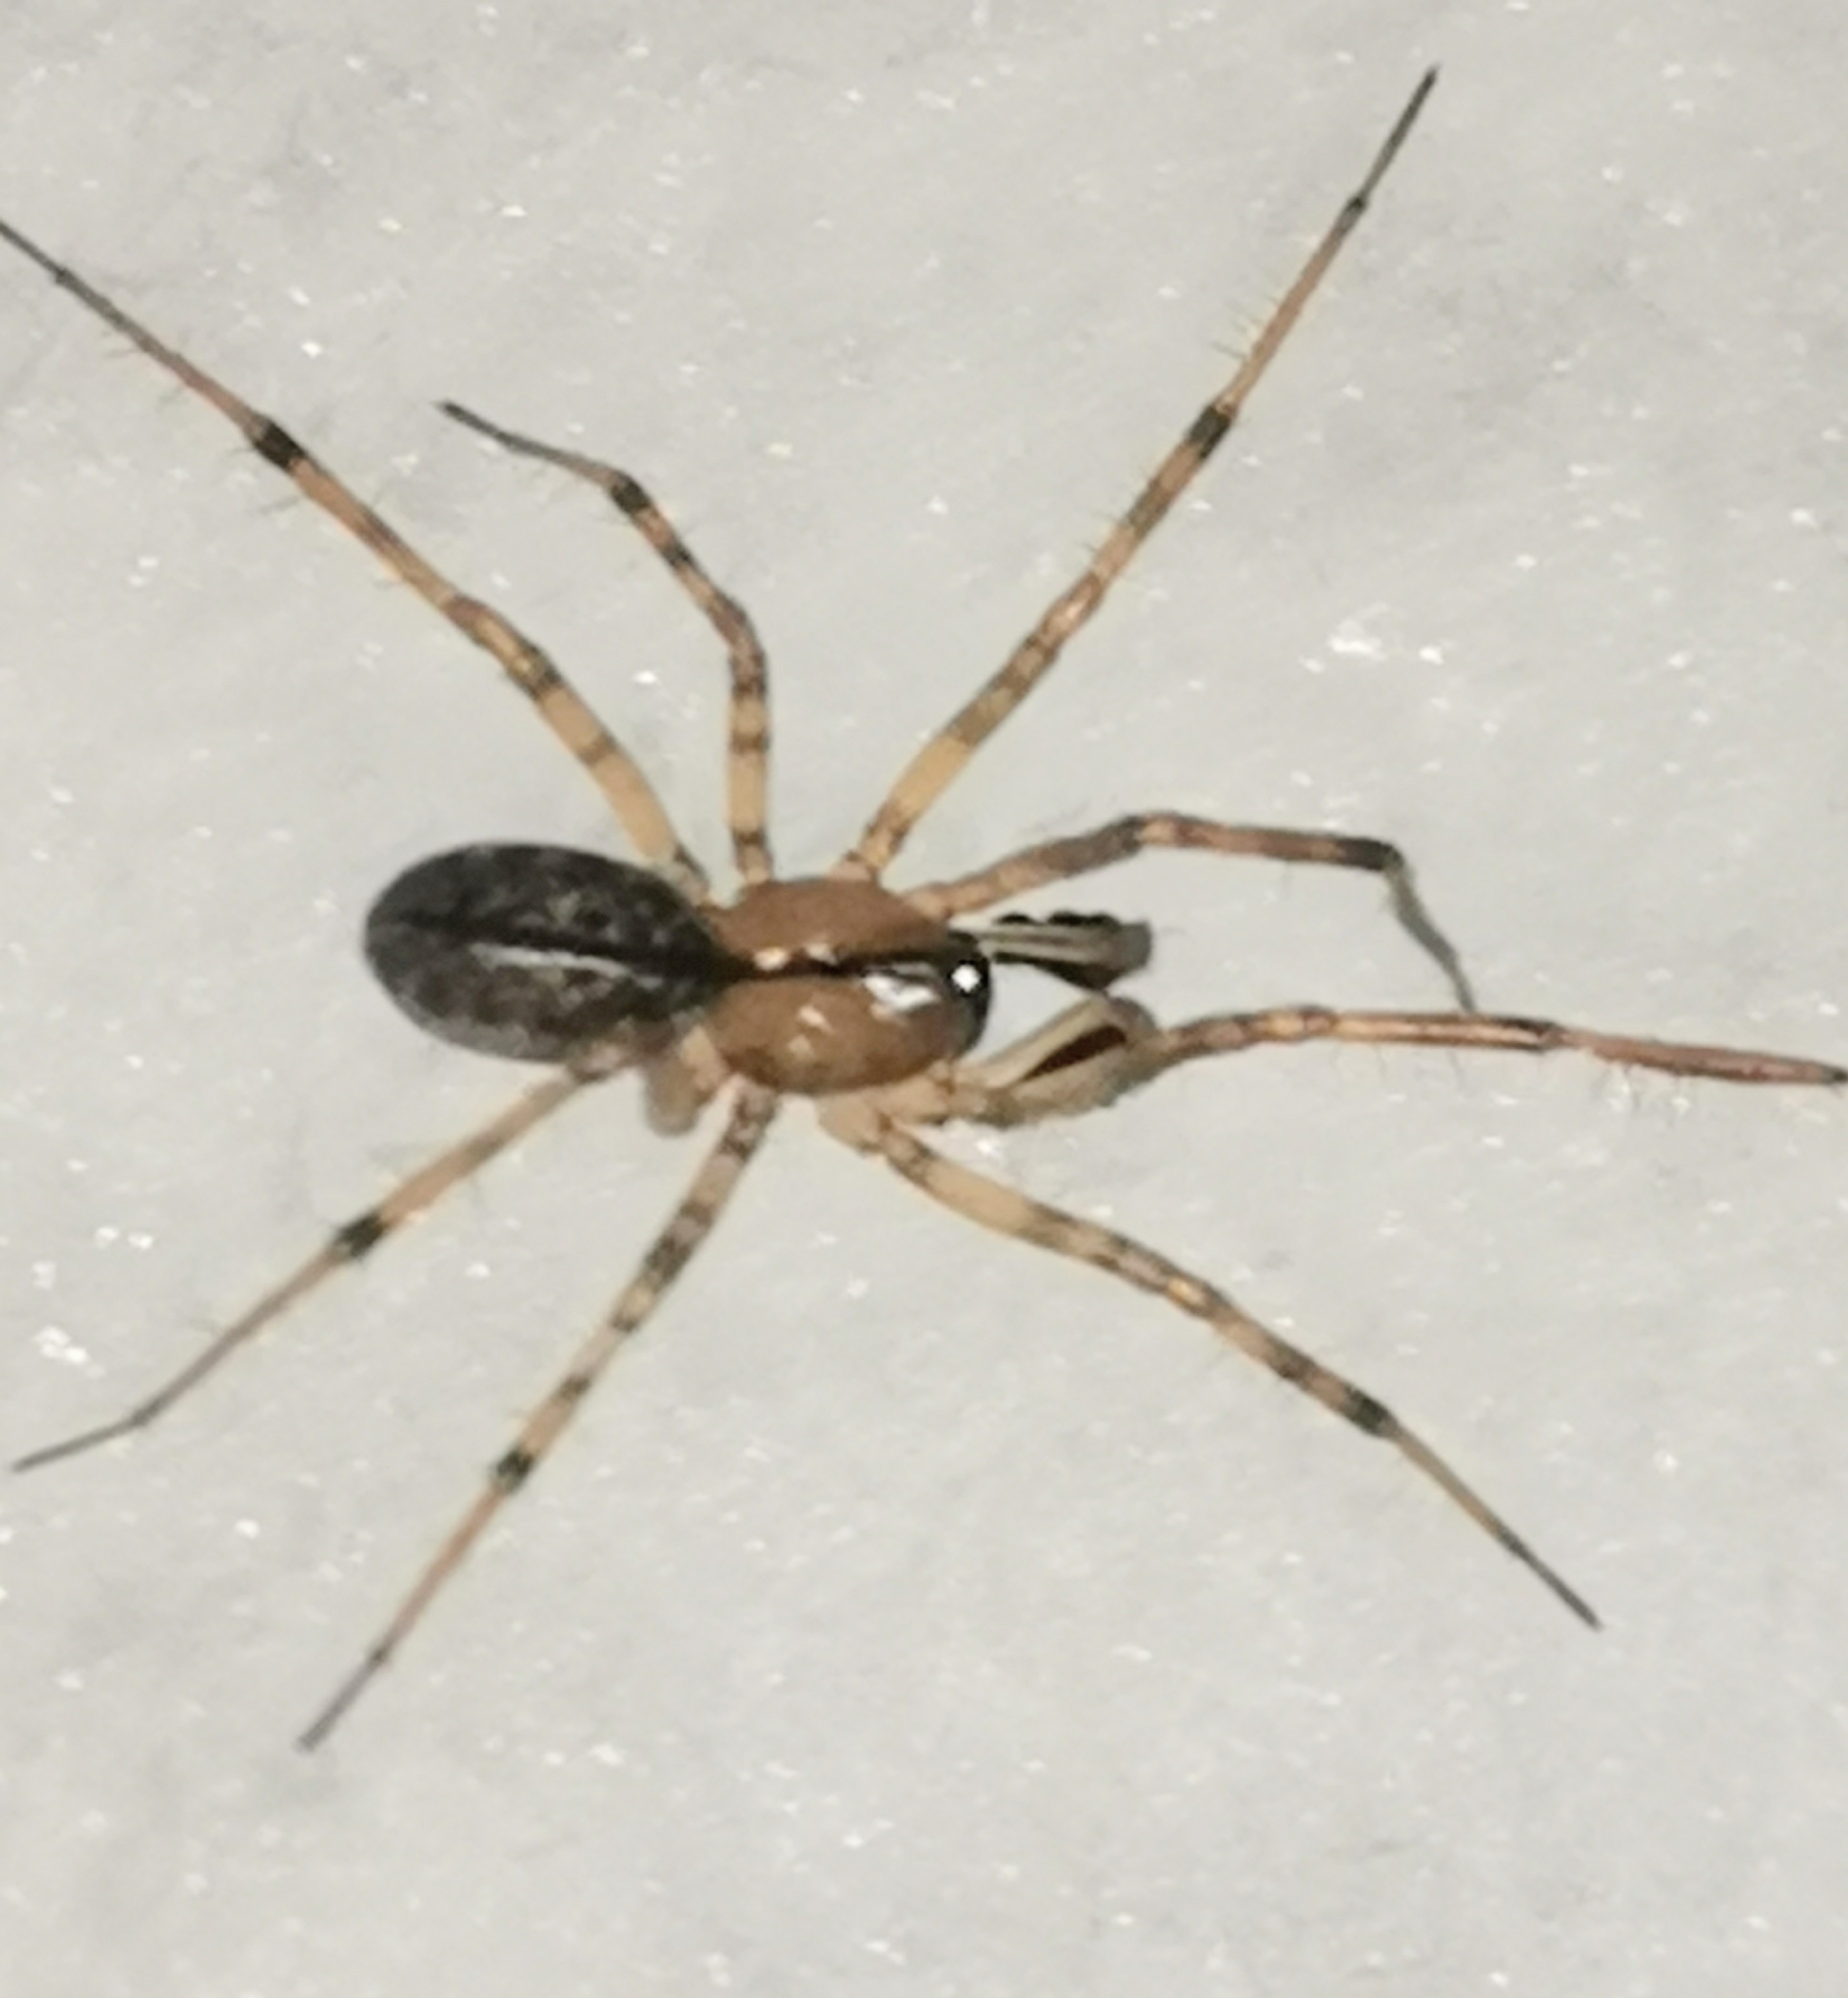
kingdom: Animalia
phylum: Arthropoda
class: Arachnida
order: Araneae
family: Linyphiidae
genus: Stemonyphantes
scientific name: Stemonyphantes lineatus
